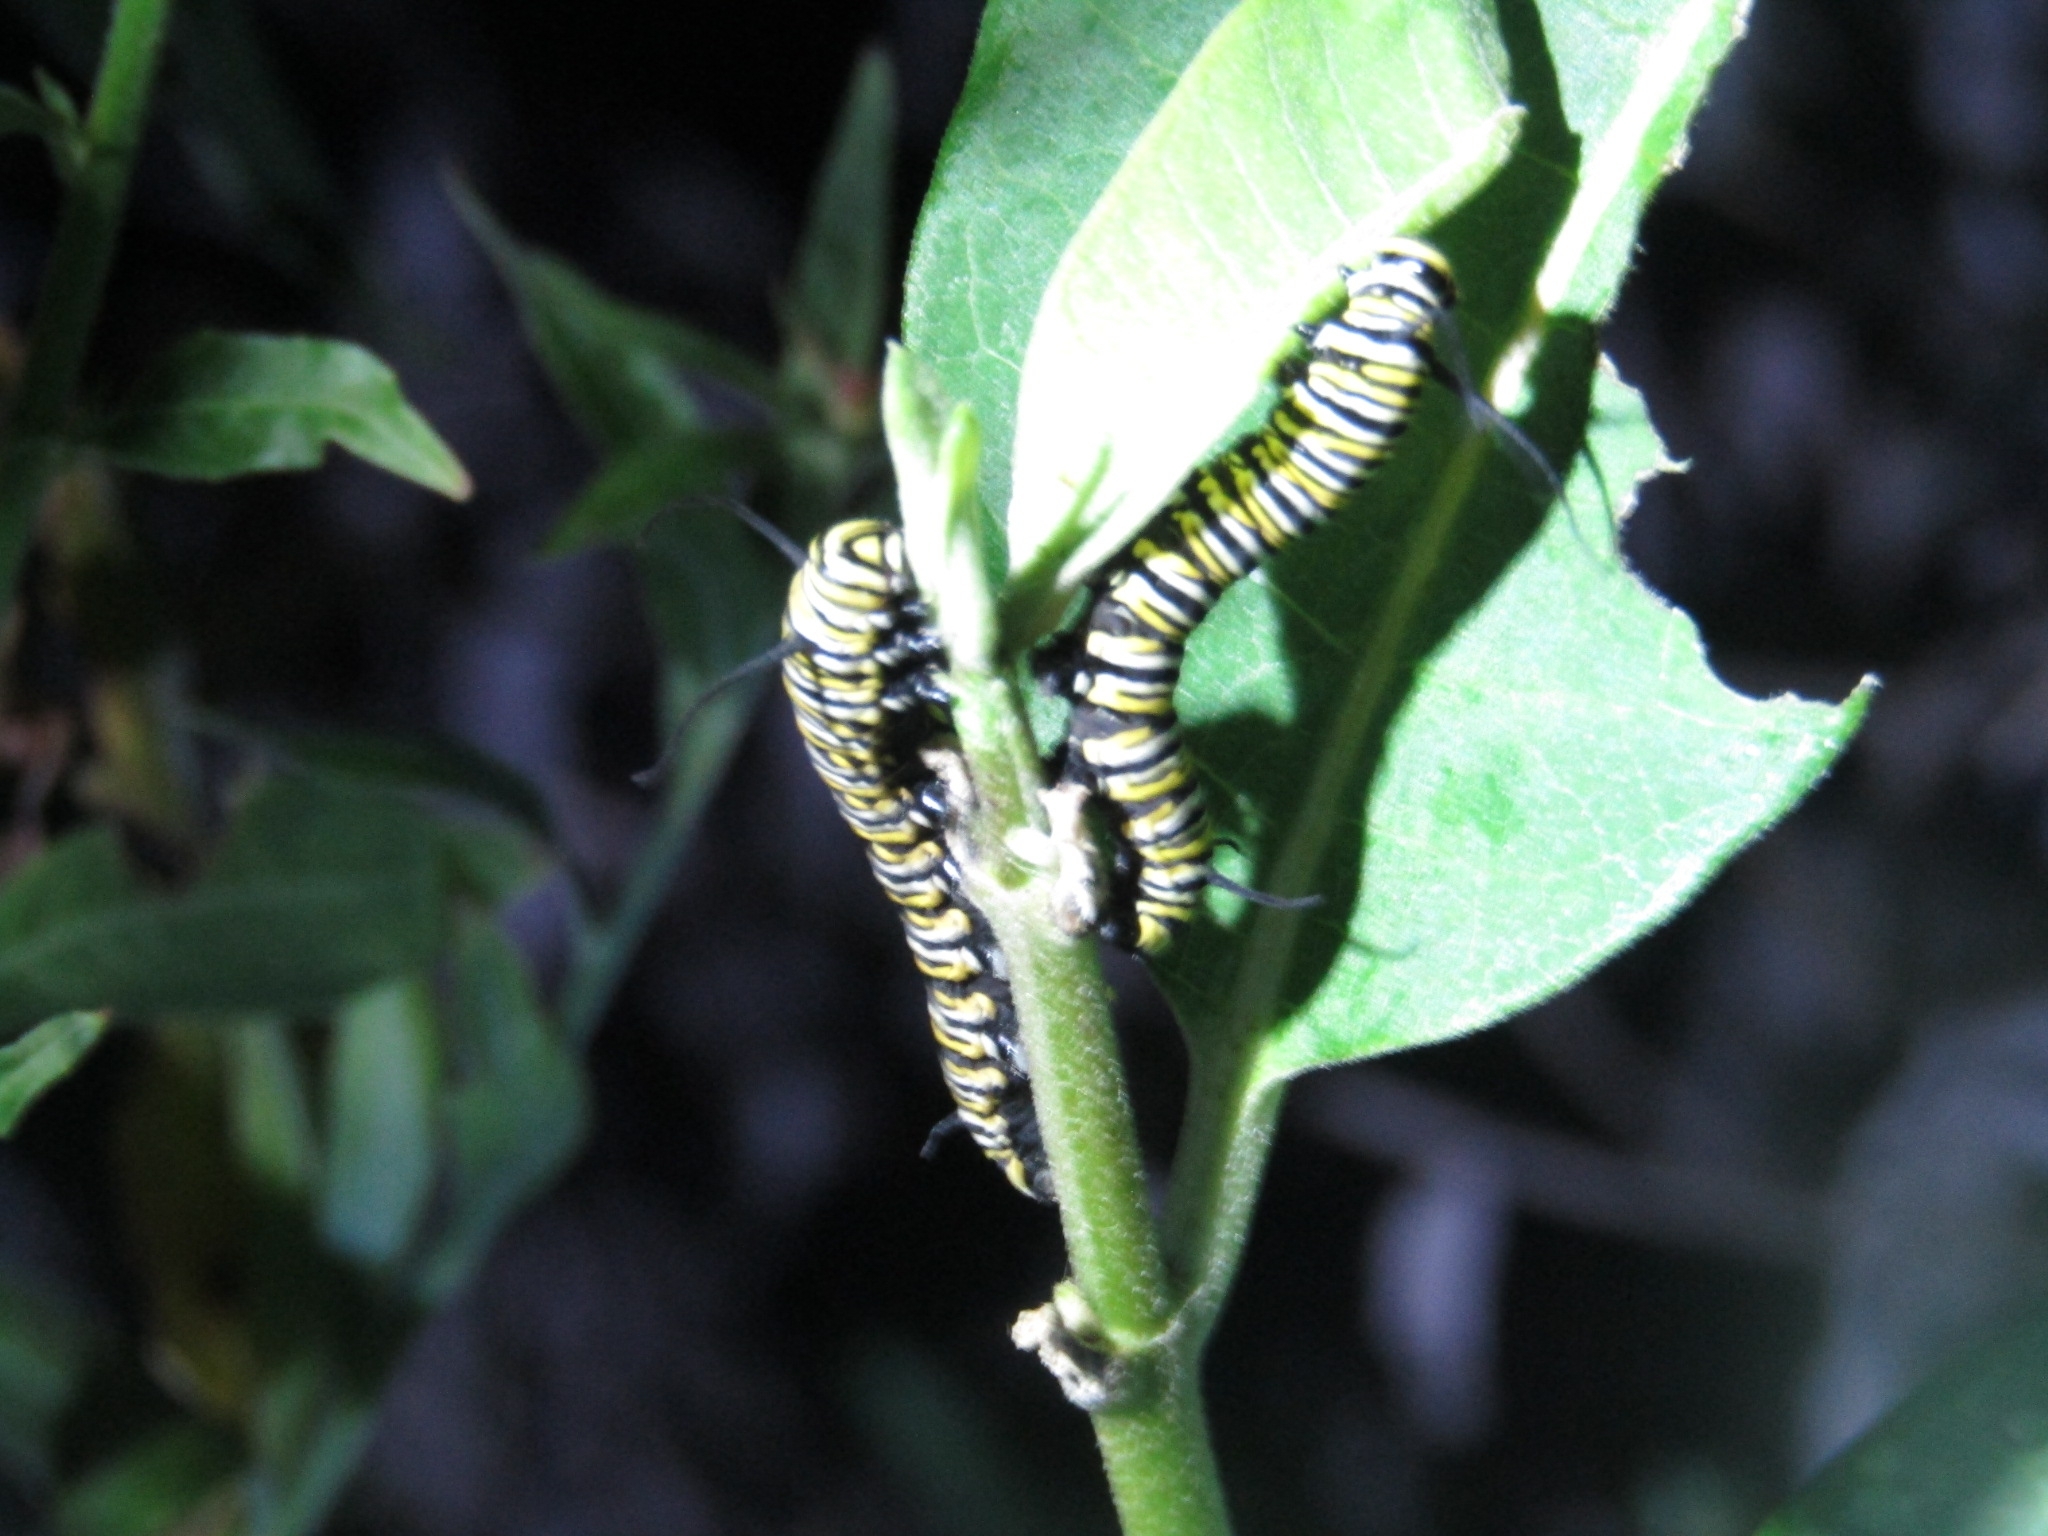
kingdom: Animalia
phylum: Arthropoda
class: Insecta
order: Lepidoptera
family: Nymphalidae
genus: Danaus
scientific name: Danaus plexippus
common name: Monarch
